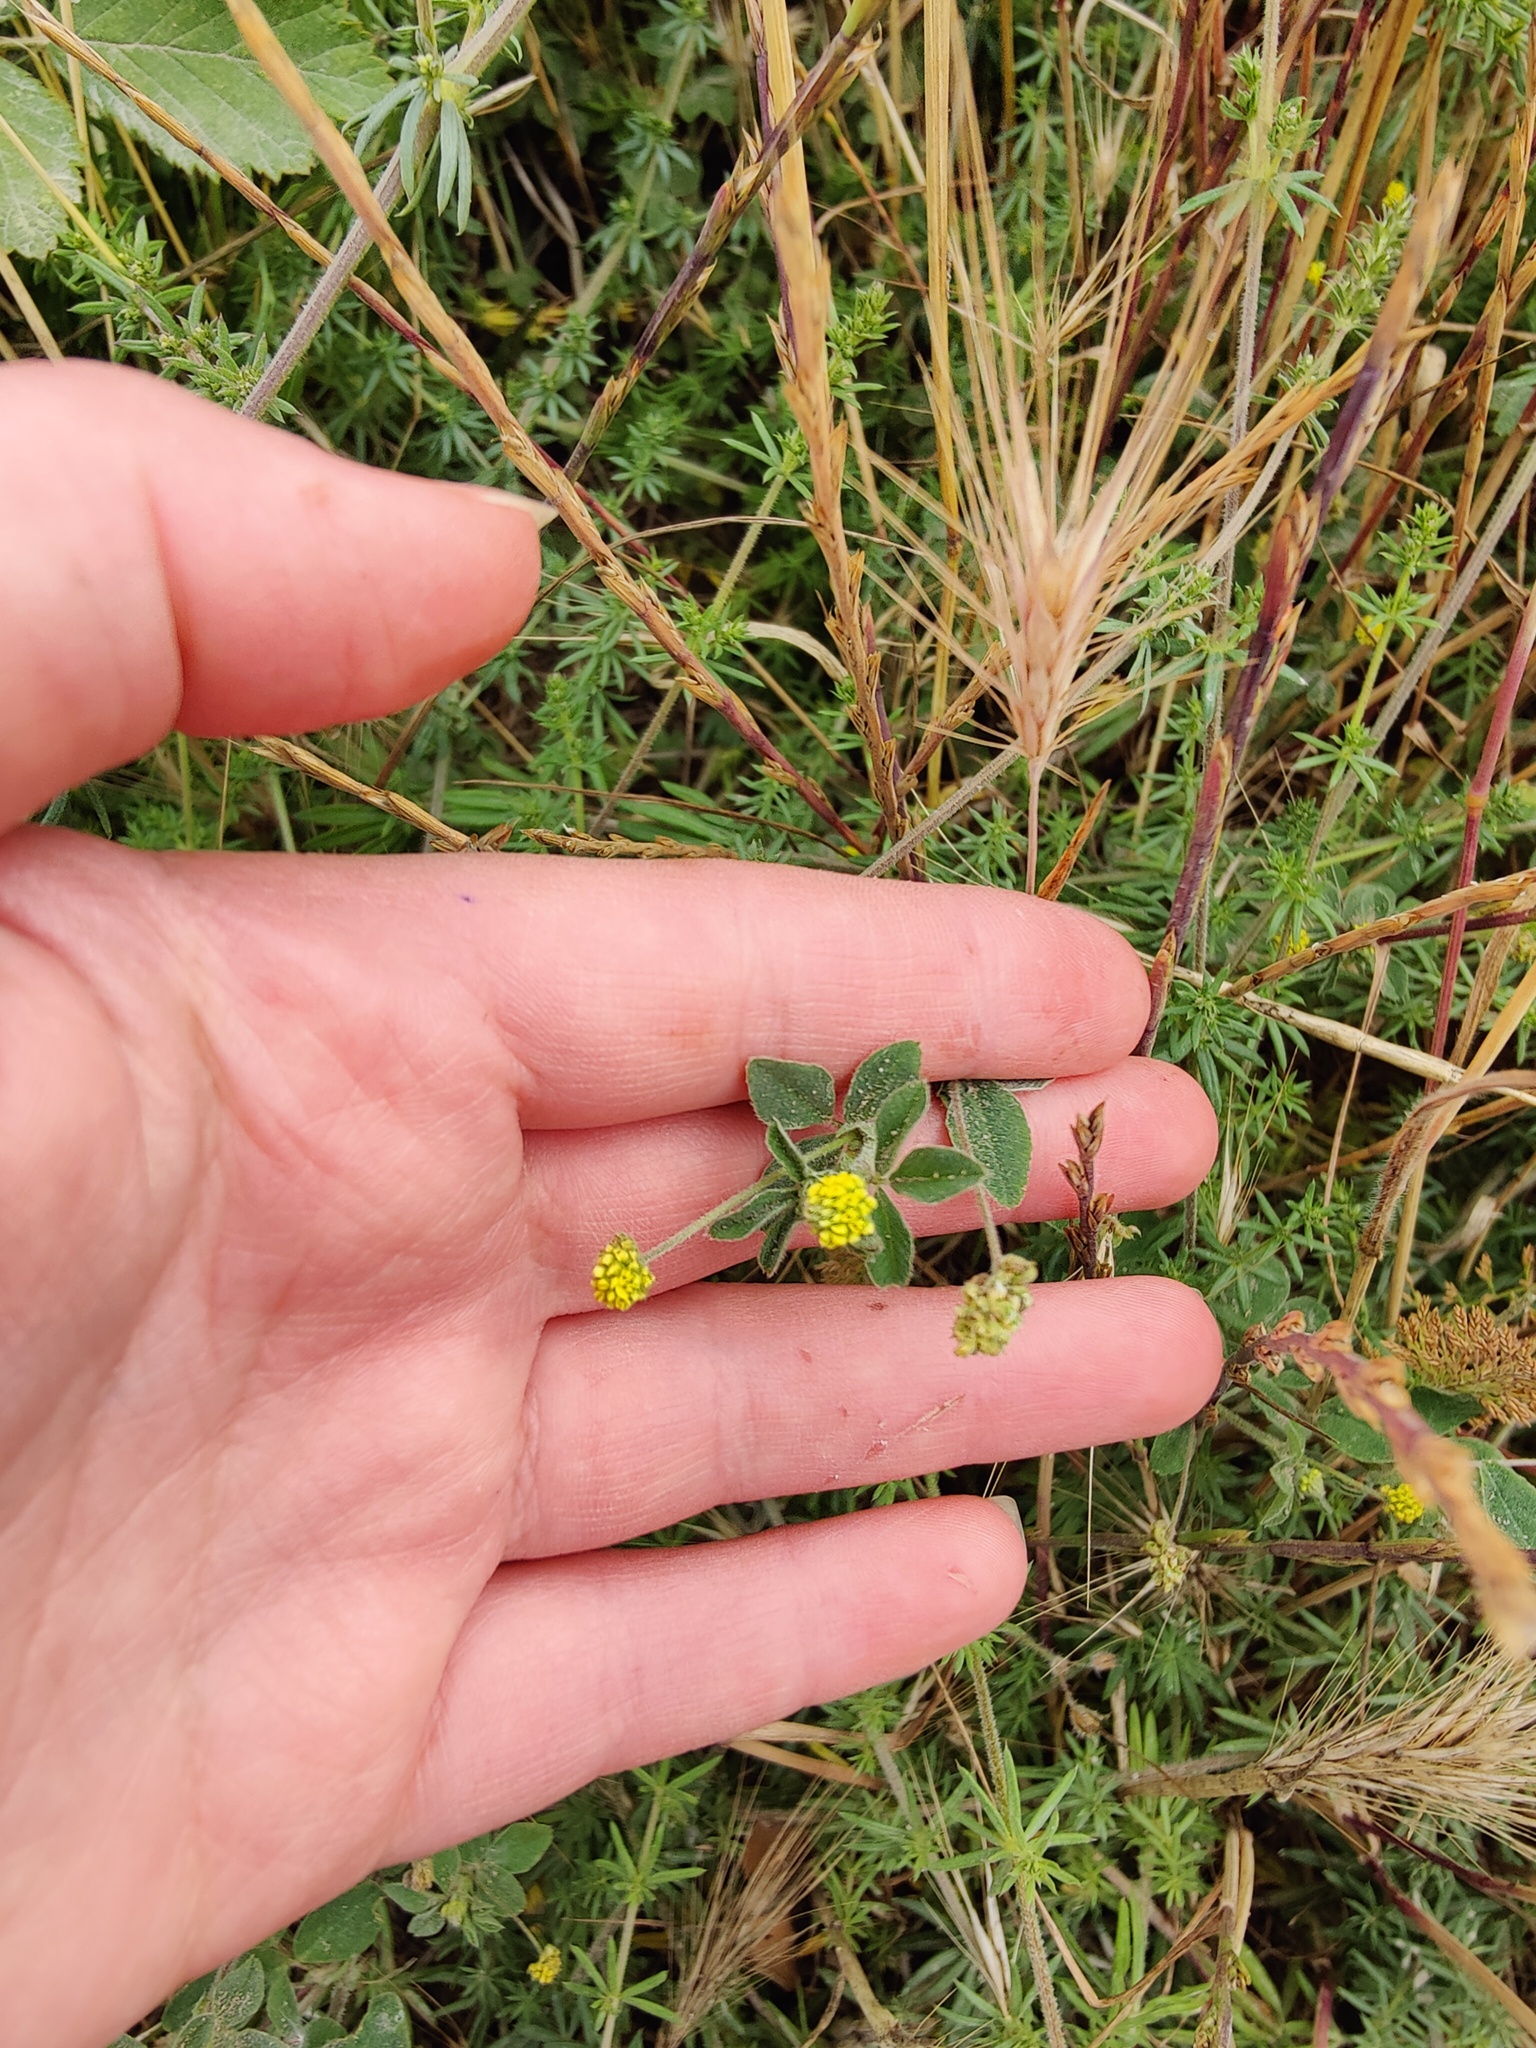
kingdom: Plantae
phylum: Tracheophyta
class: Magnoliopsida
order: Fabales
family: Fabaceae
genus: Medicago
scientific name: Medicago lupulina
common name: Black medick
